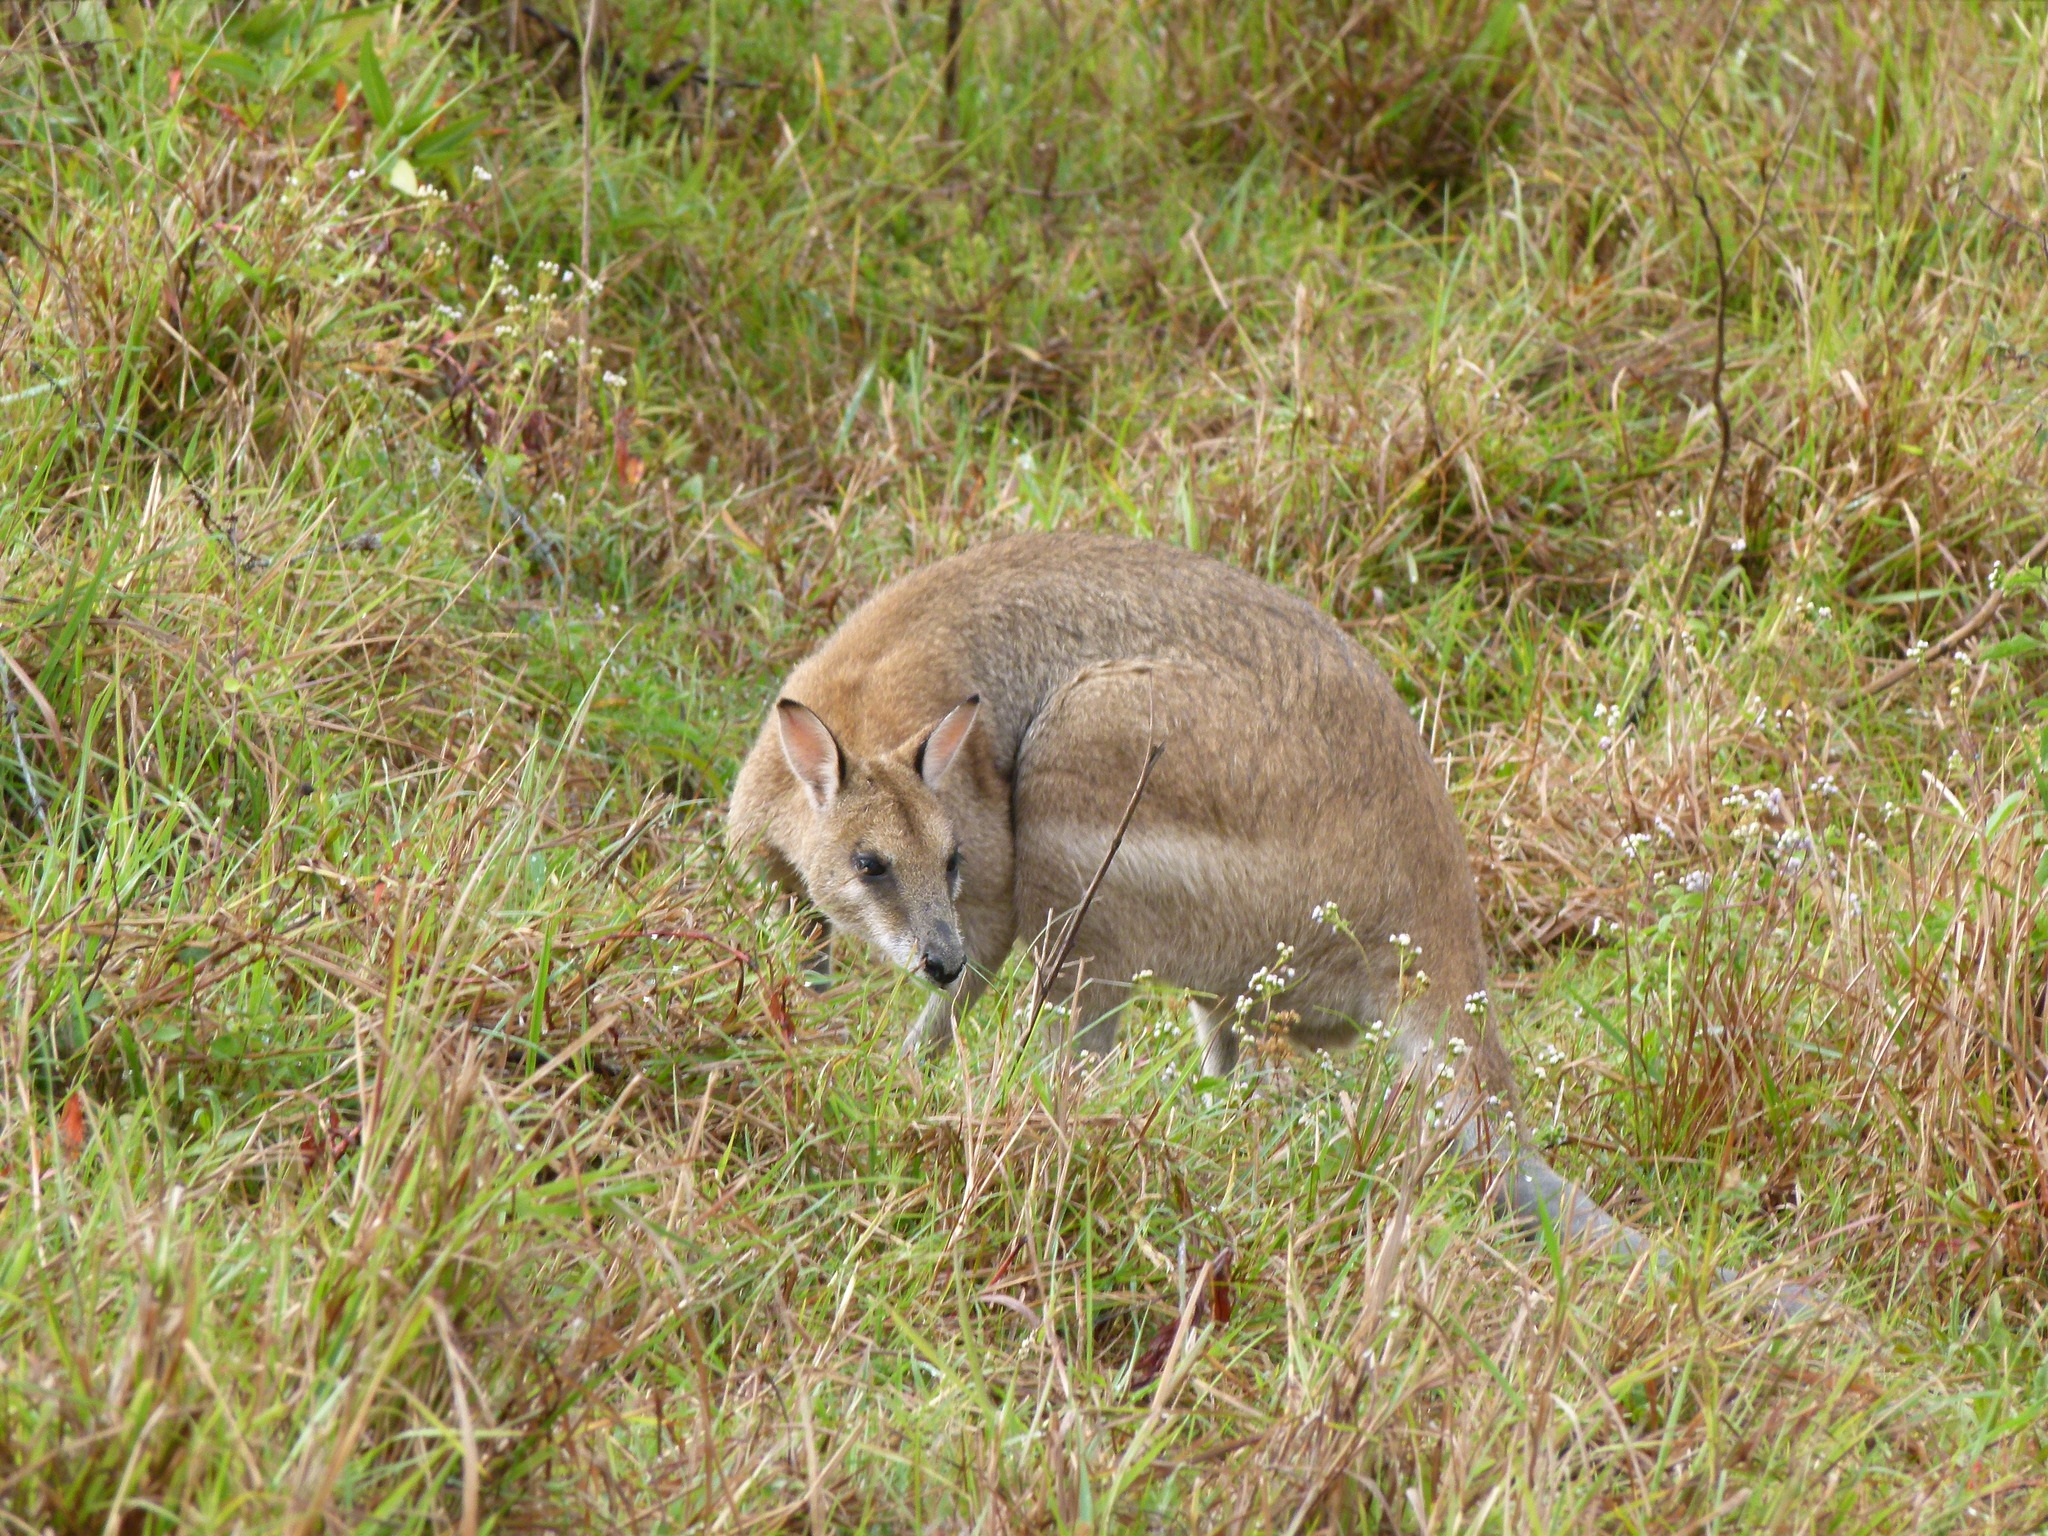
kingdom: Animalia
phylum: Chordata
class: Mammalia
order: Diprotodontia
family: Macropodidae
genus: Macropus
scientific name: Macropus agilis
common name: Agile wallaby
